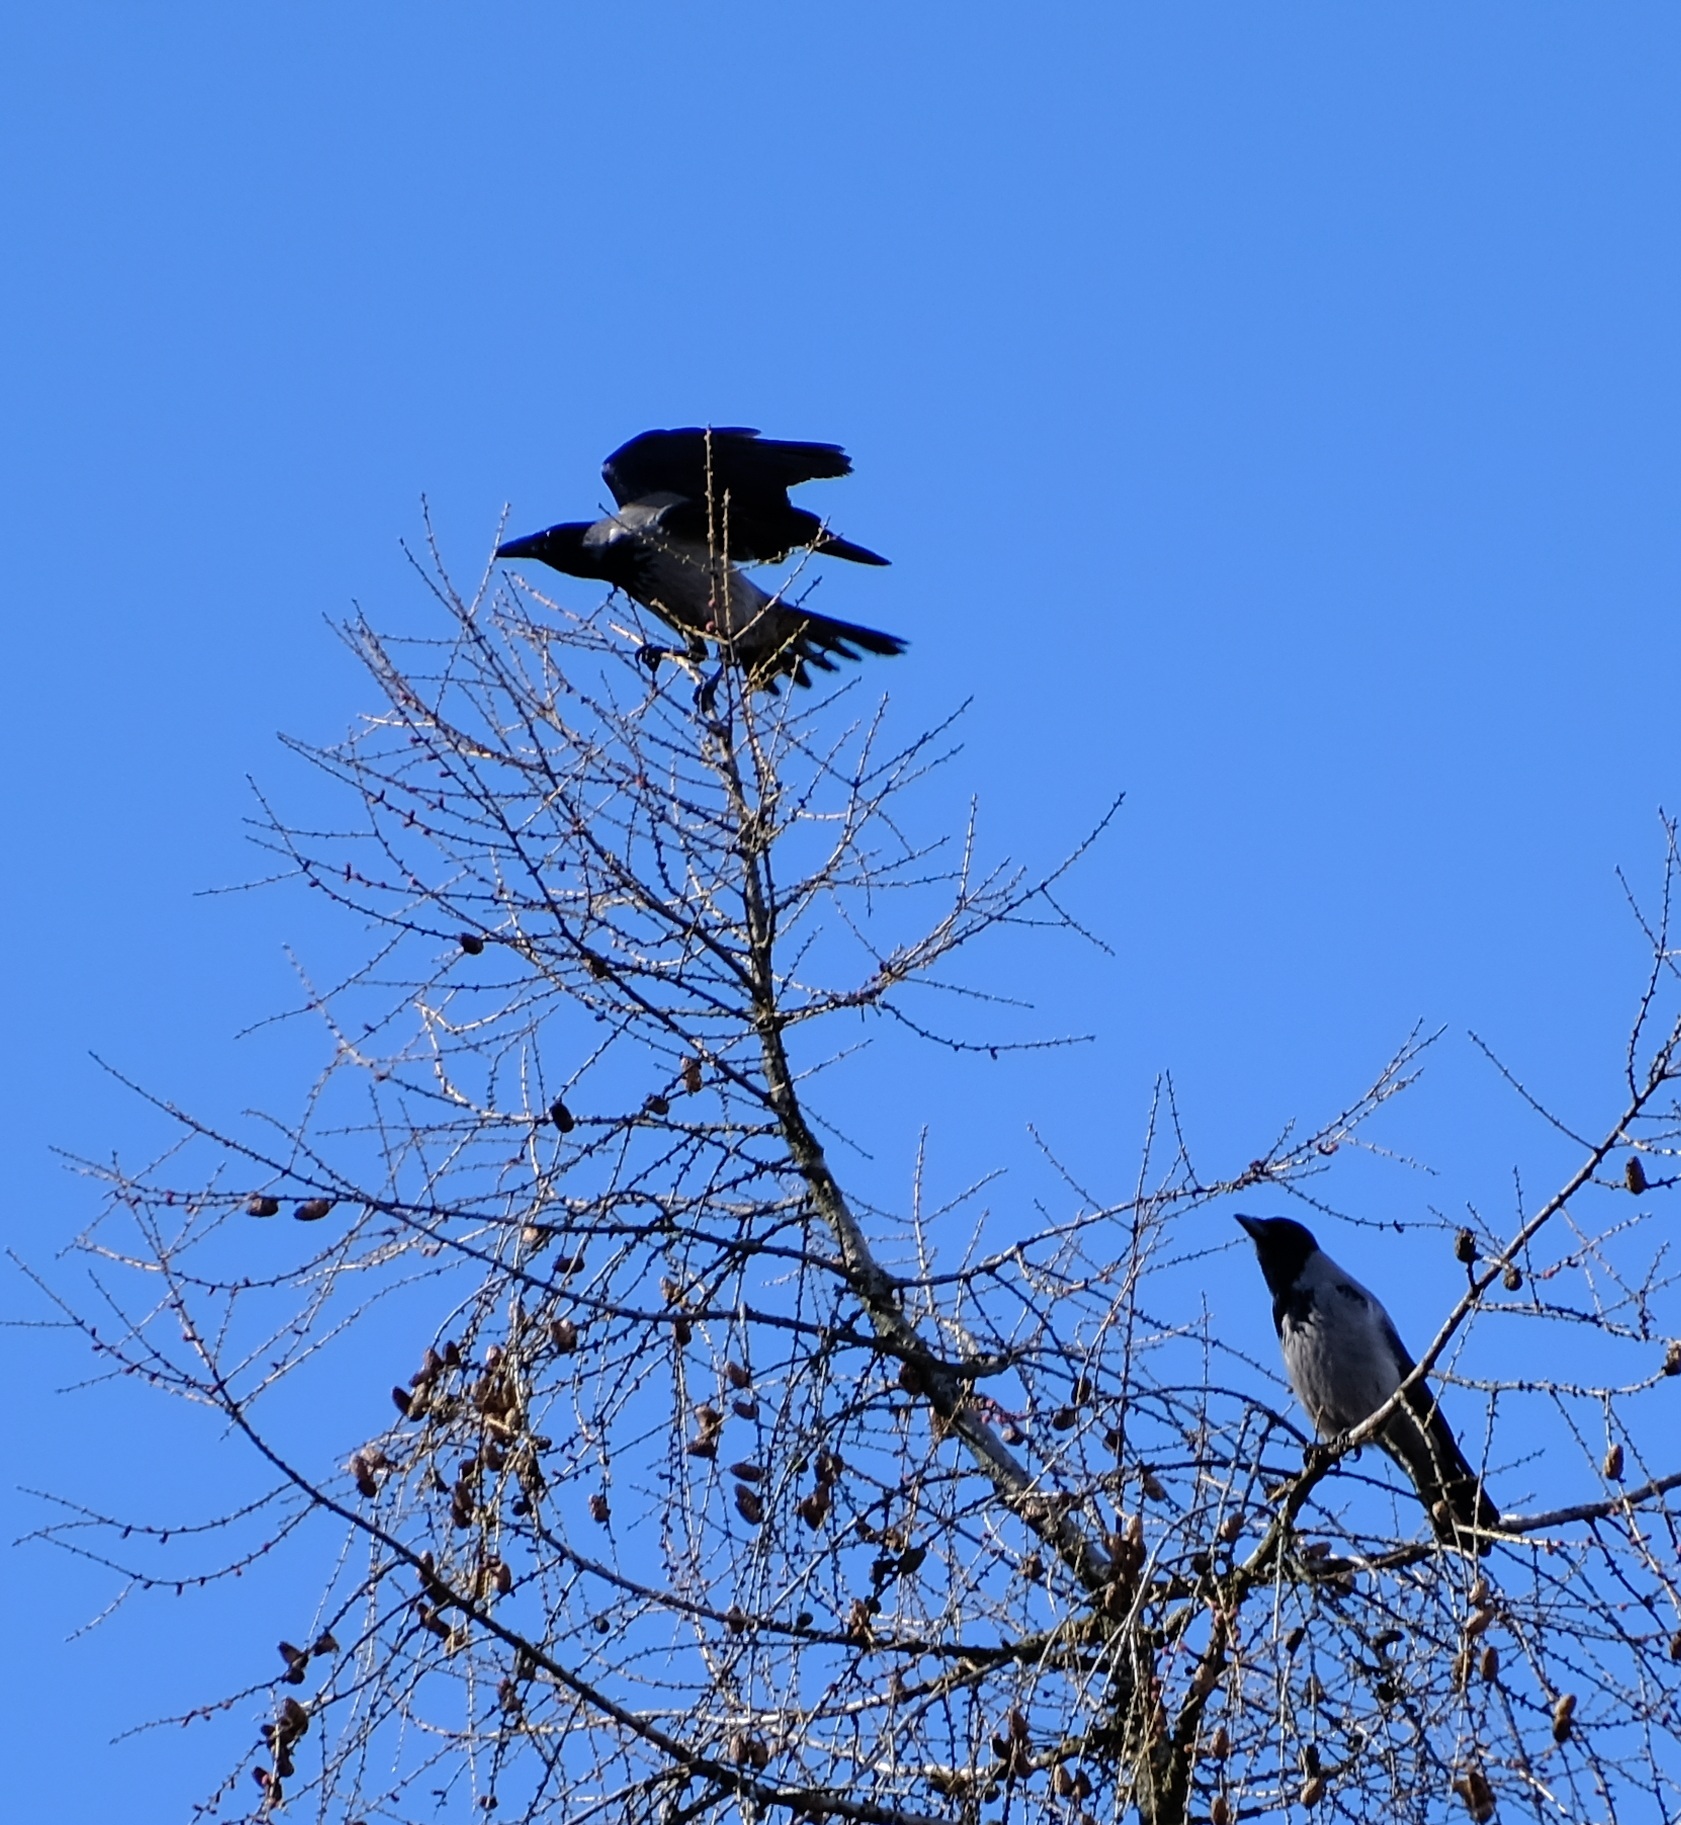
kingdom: Animalia
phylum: Chordata
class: Aves
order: Passeriformes
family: Corvidae
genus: Corvus
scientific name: Corvus cornix
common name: Hooded crow
